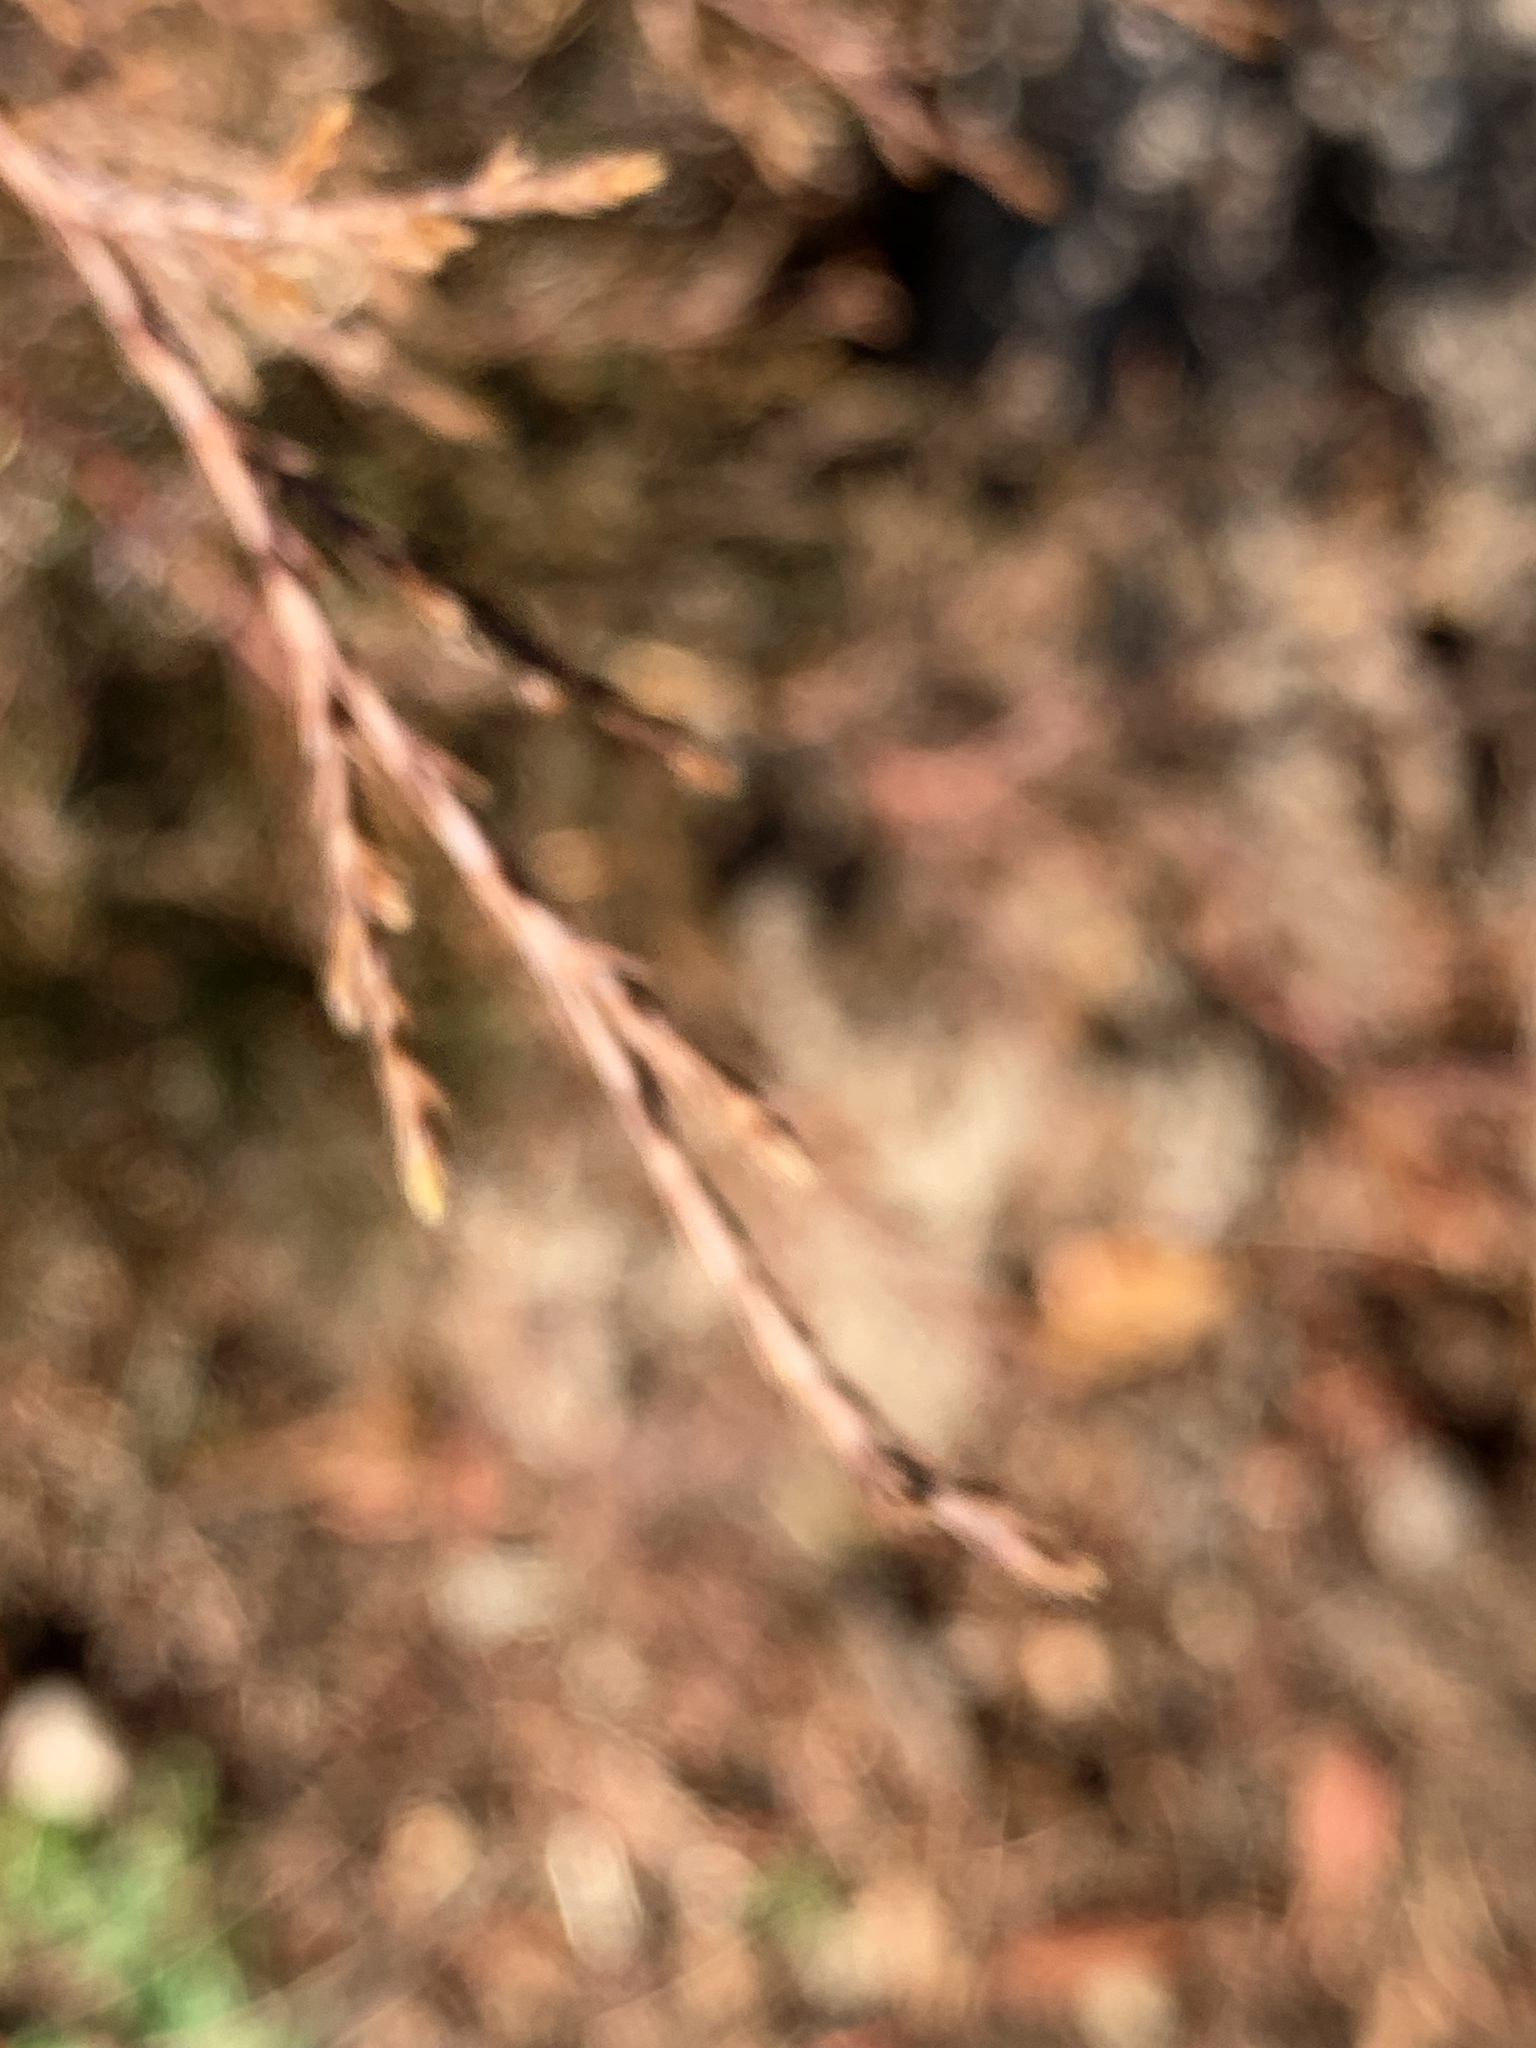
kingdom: Plantae
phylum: Tracheophyta
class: Pinopsida
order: Pinales
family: Cupressaceae
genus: Juniperus
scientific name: Juniperus virginiana
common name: Red juniper
